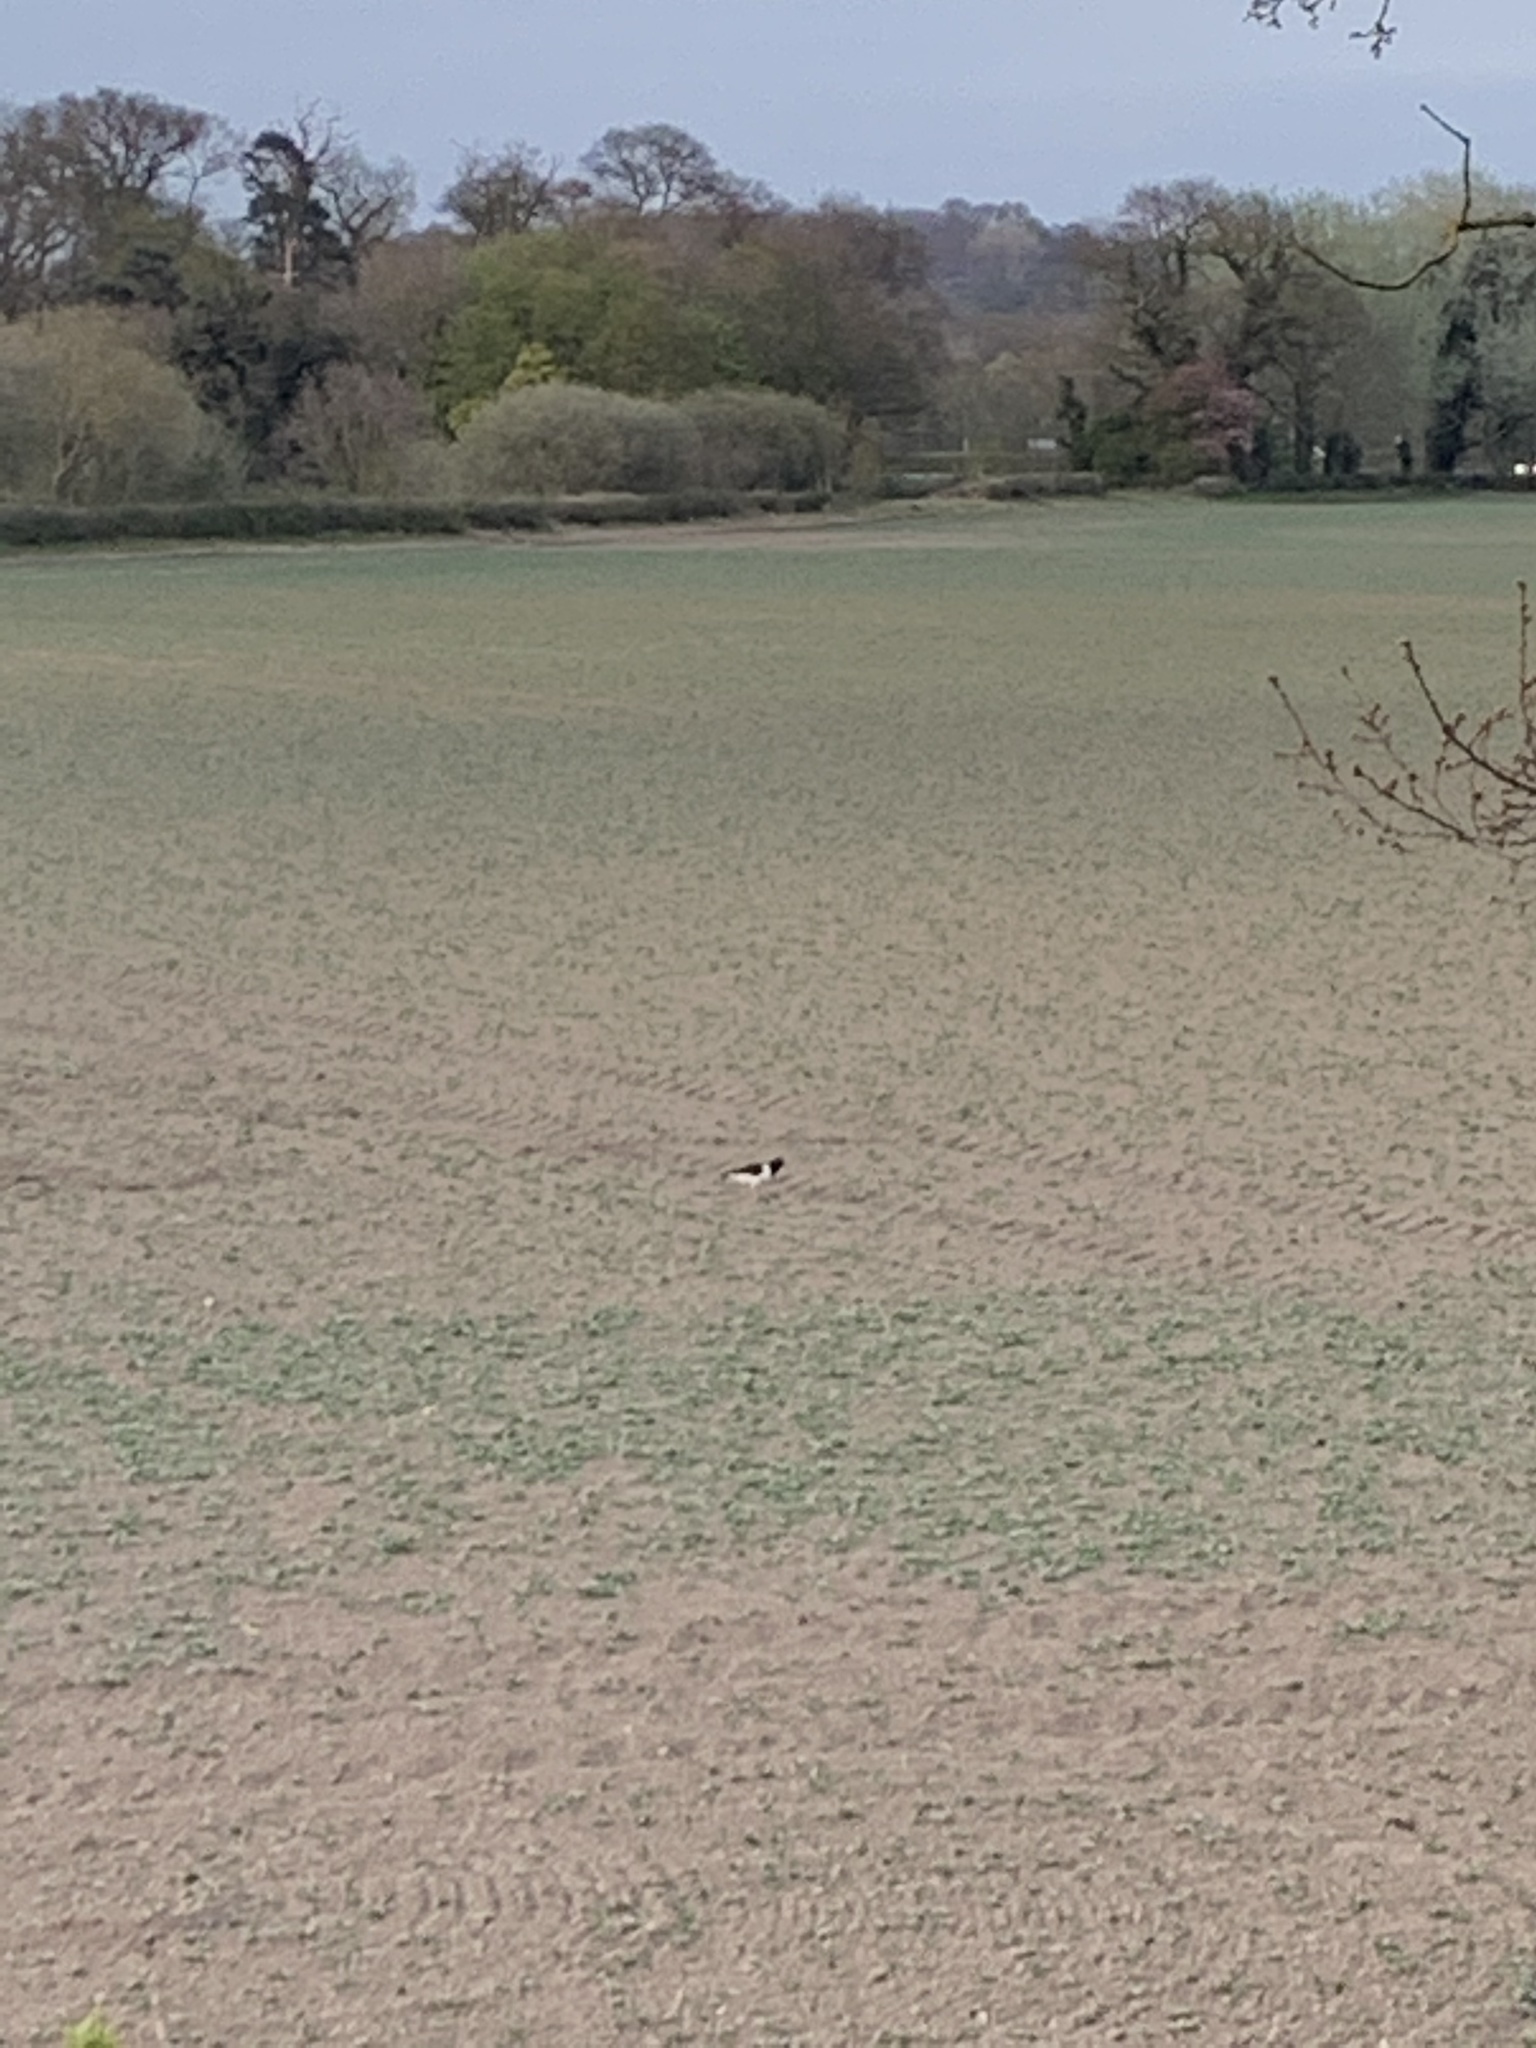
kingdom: Animalia
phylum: Chordata
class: Aves
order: Charadriiformes
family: Haematopodidae
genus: Haematopus
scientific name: Haematopus ostralegus
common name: Eurasian oystercatcher
